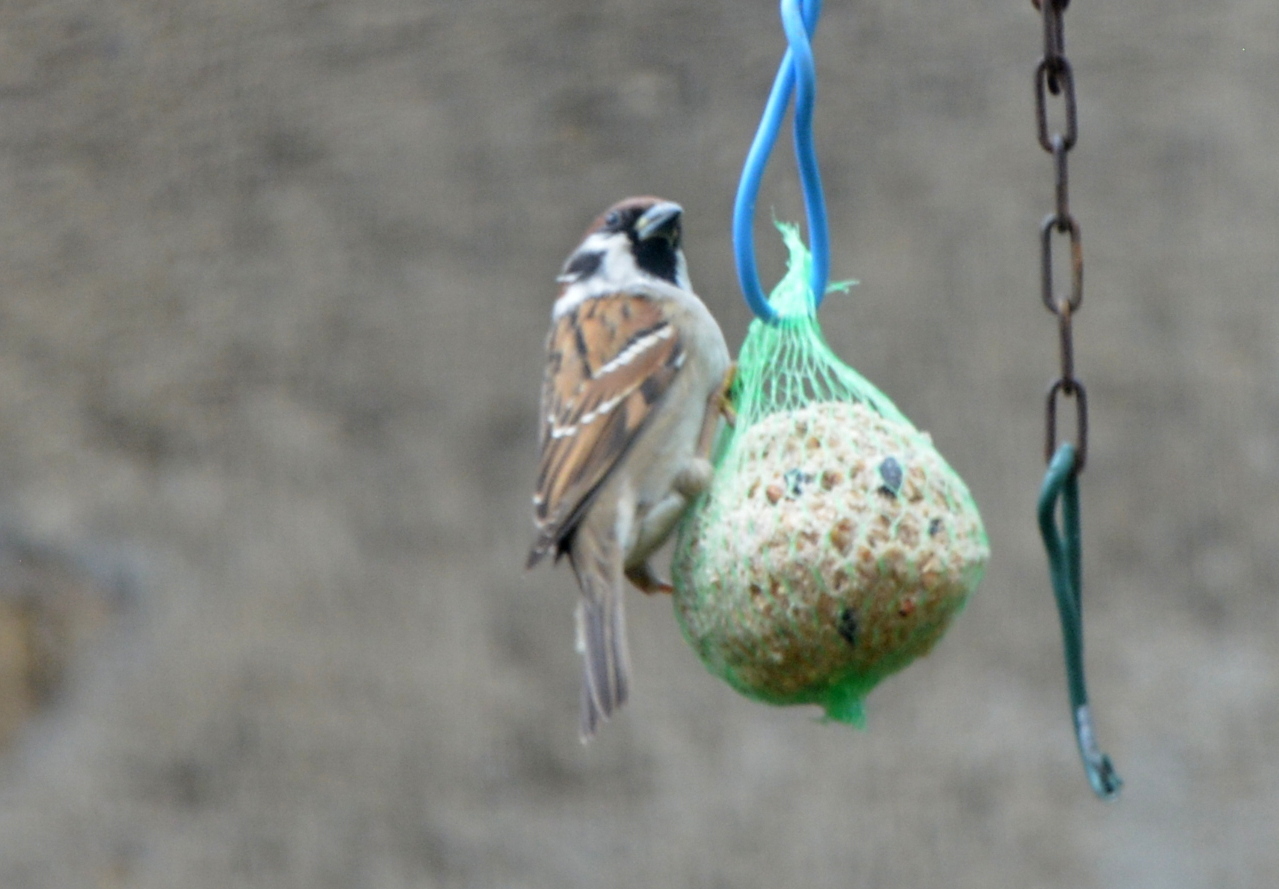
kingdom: Animalia
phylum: Chordata
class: Aves
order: Passeriformes
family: Passeridae
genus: Passer
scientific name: Passer montanus
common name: Eurasian tree sparrow
